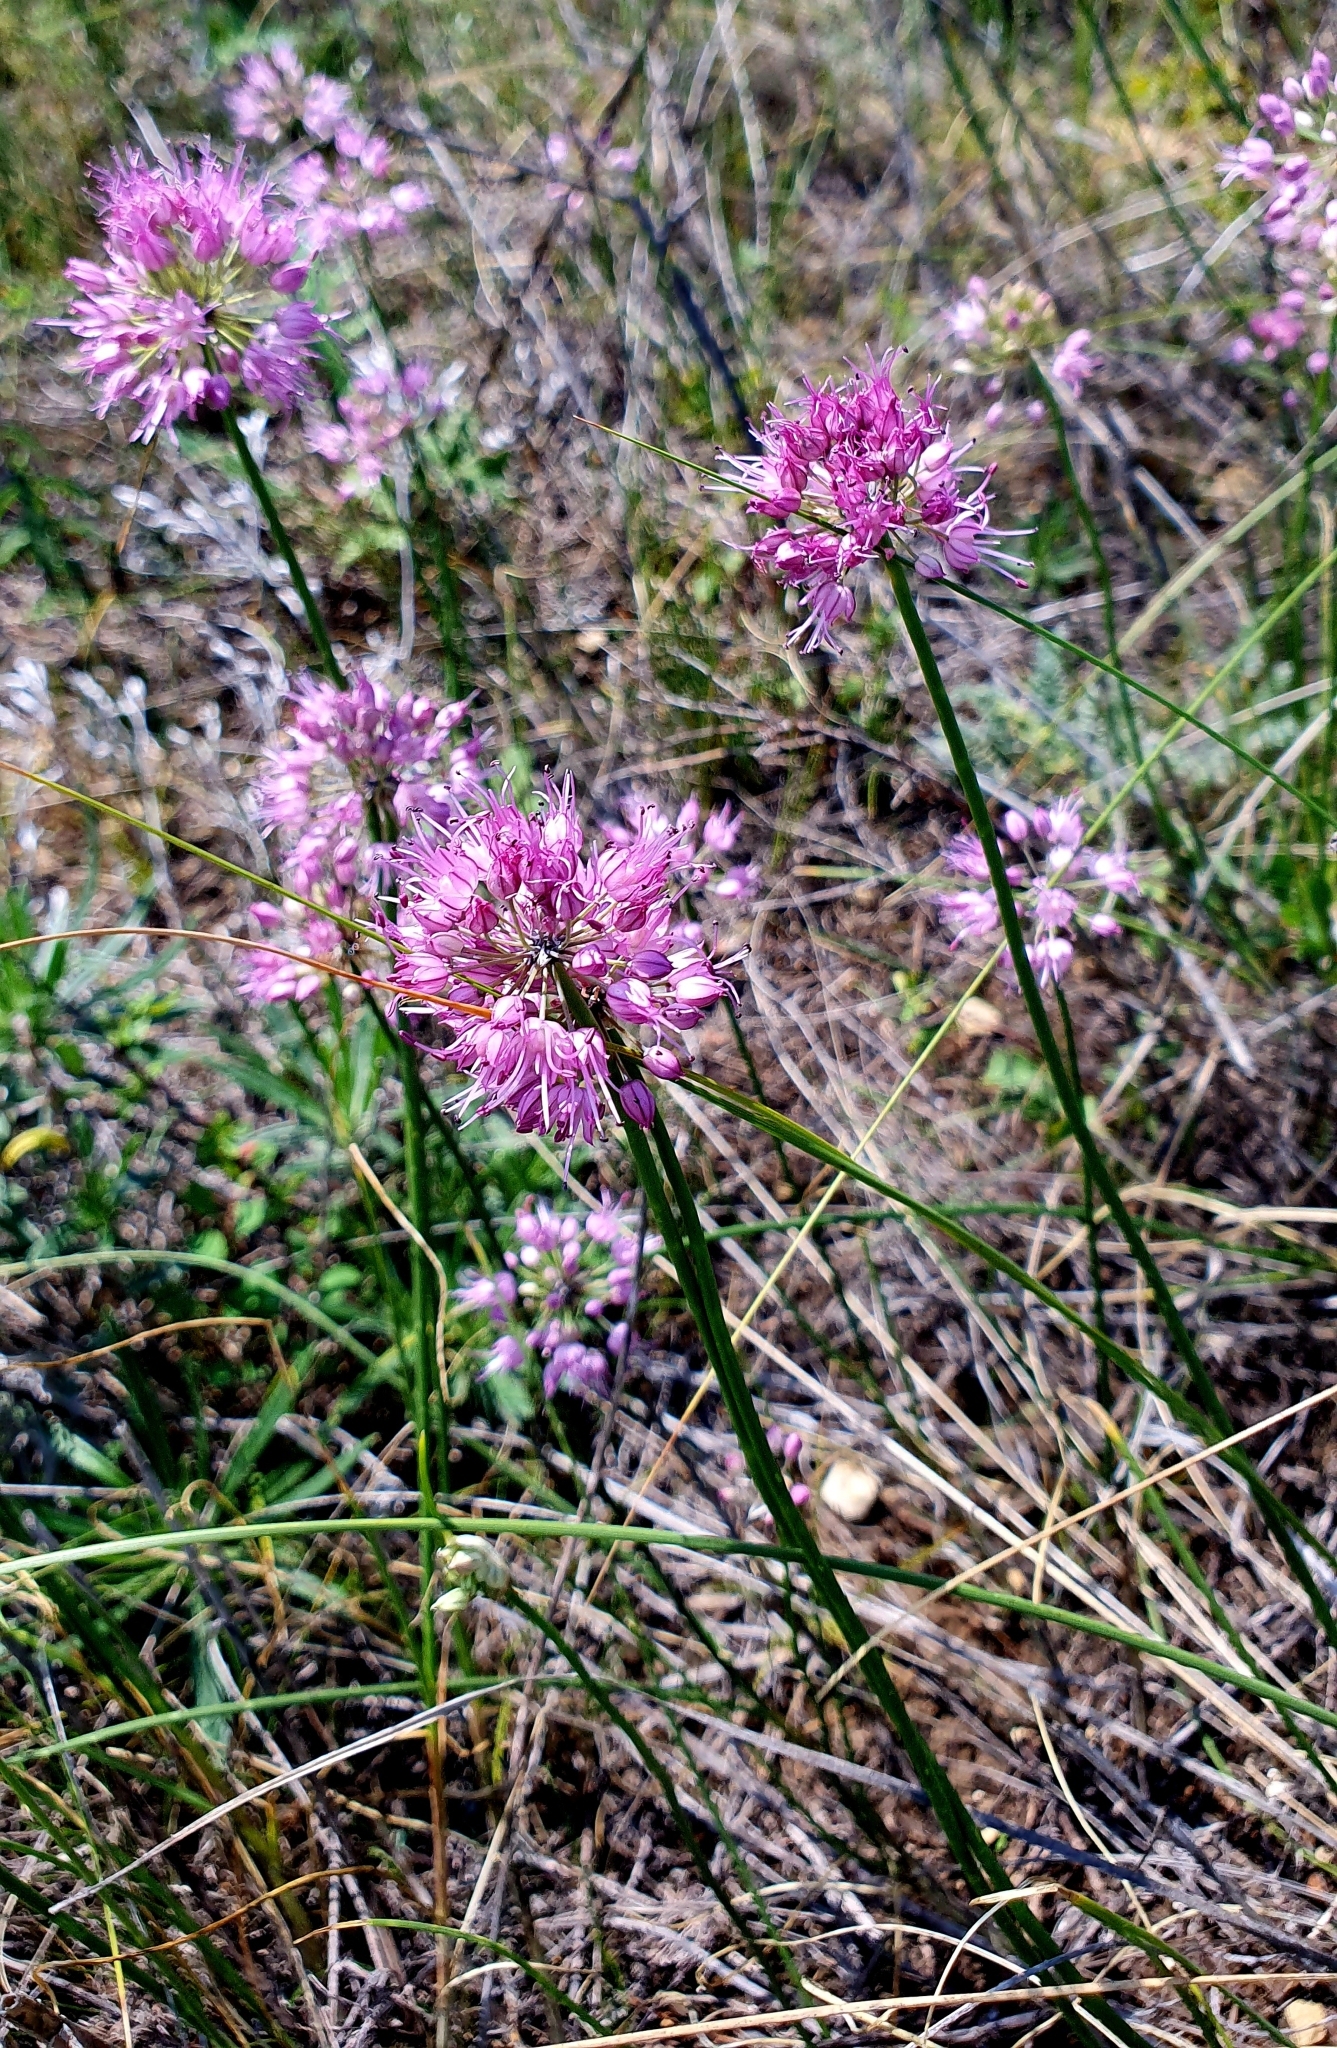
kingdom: Plantae
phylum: Tracheophyta
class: Liliopsida
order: Asparagales
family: Amaryllidaceae
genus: Allium
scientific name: Allium cretaceum
